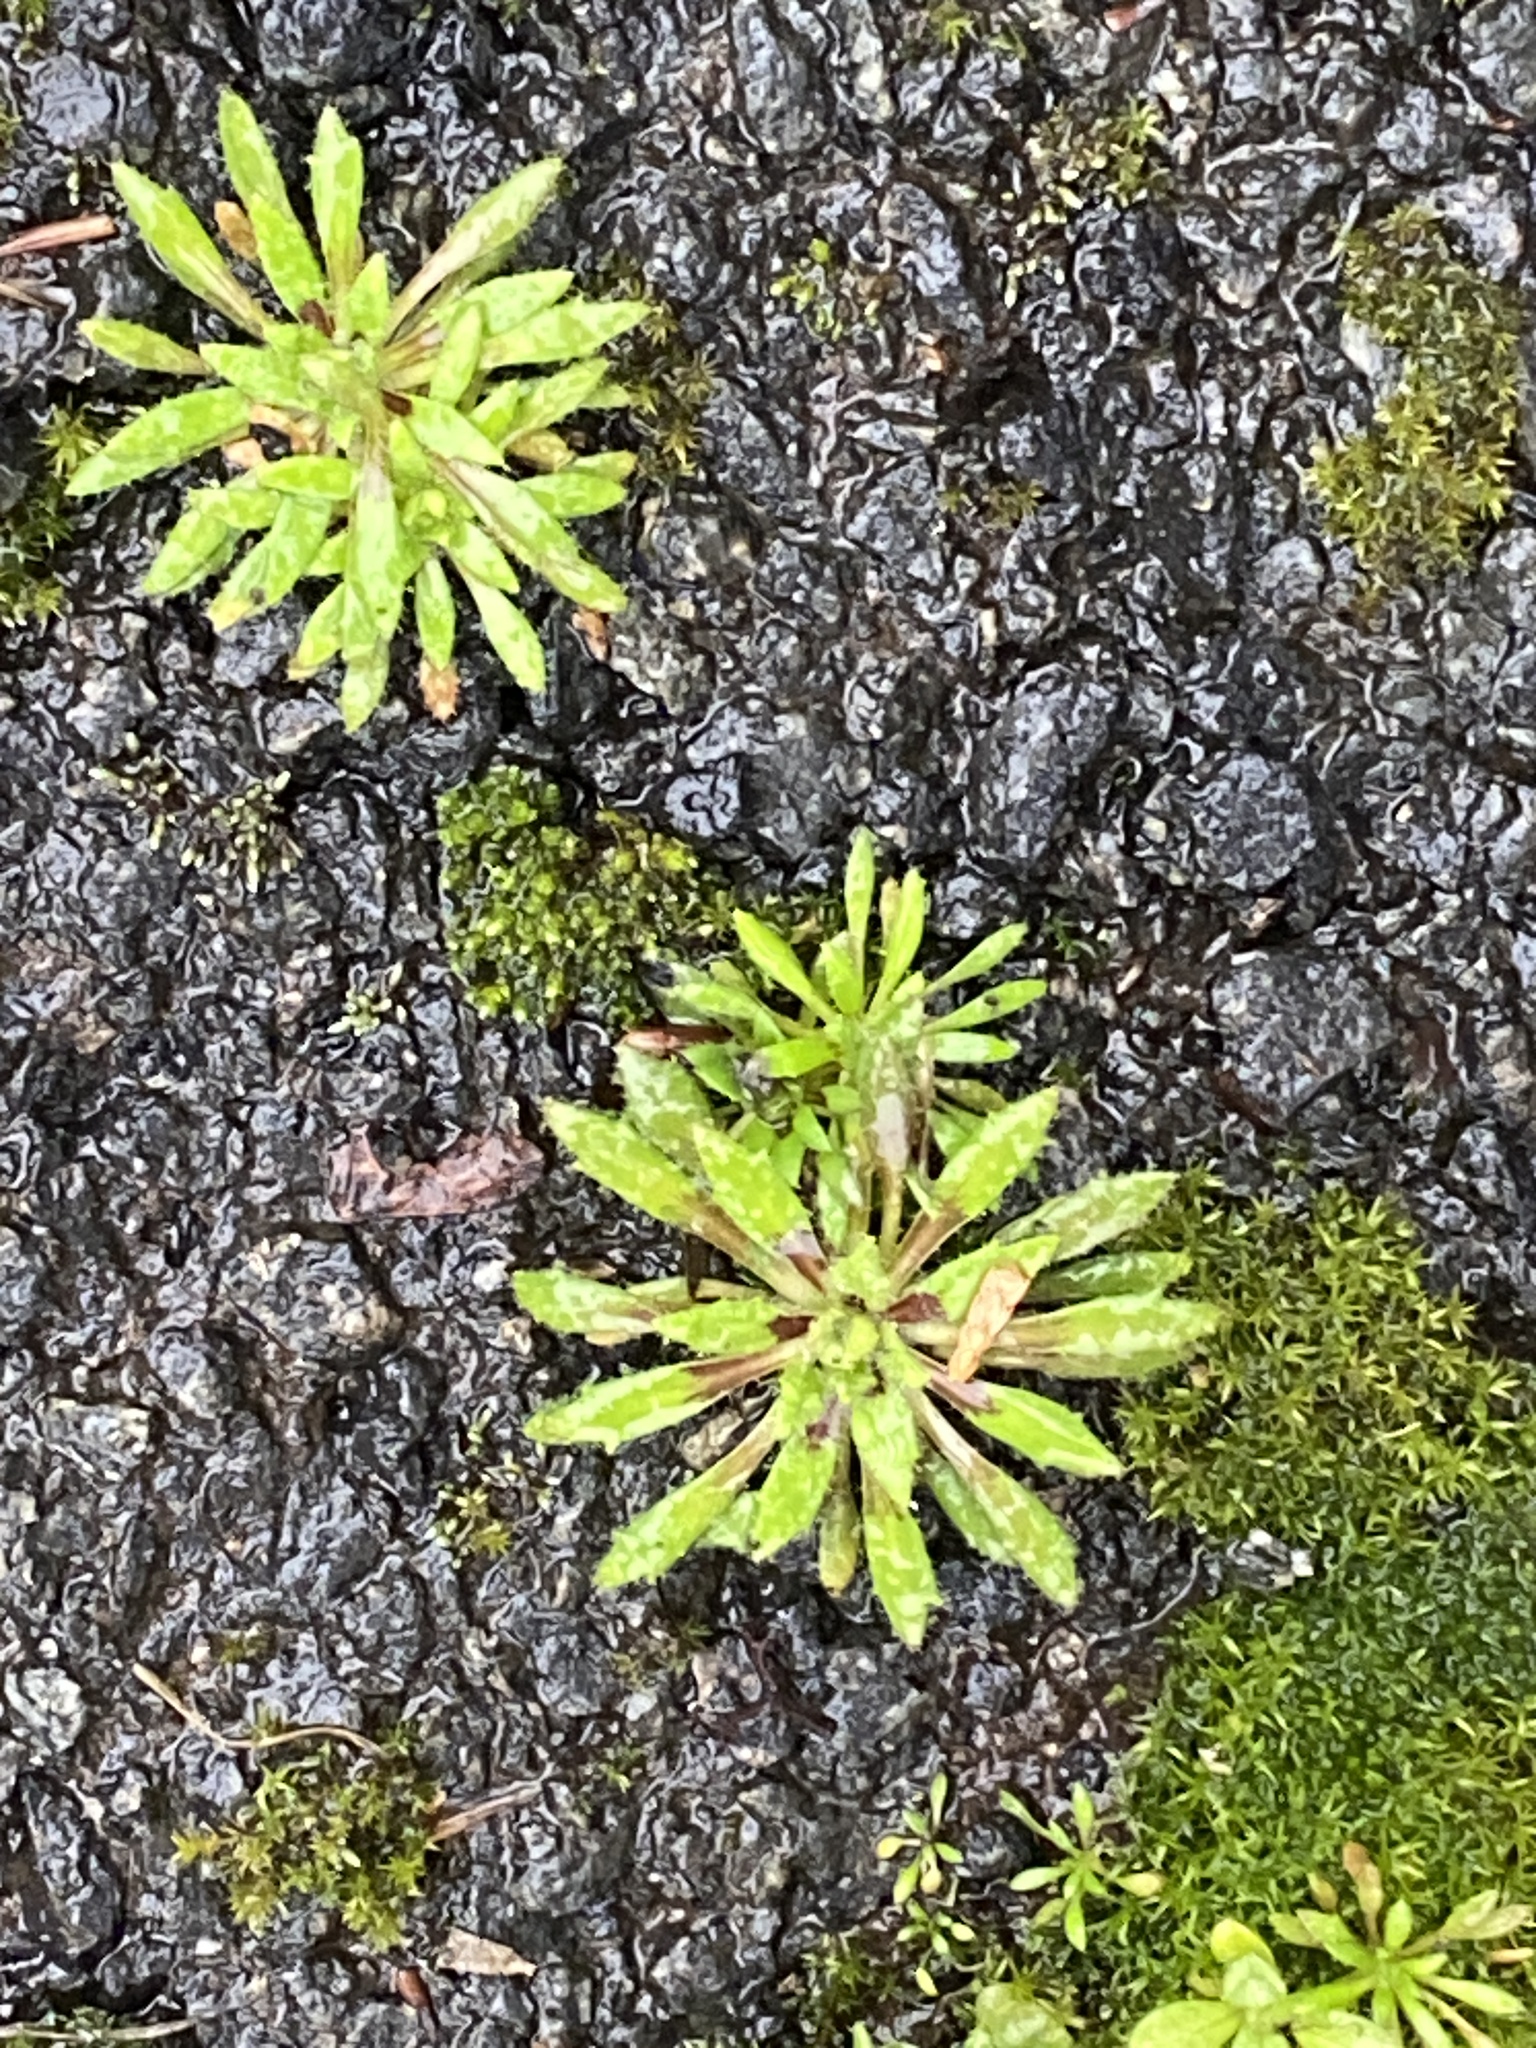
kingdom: Plantae
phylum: Tracheophyta
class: Magnoliopsida
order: Brassicales
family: Brassicaceae
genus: Draba
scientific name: Draba verna
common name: Spring draba
